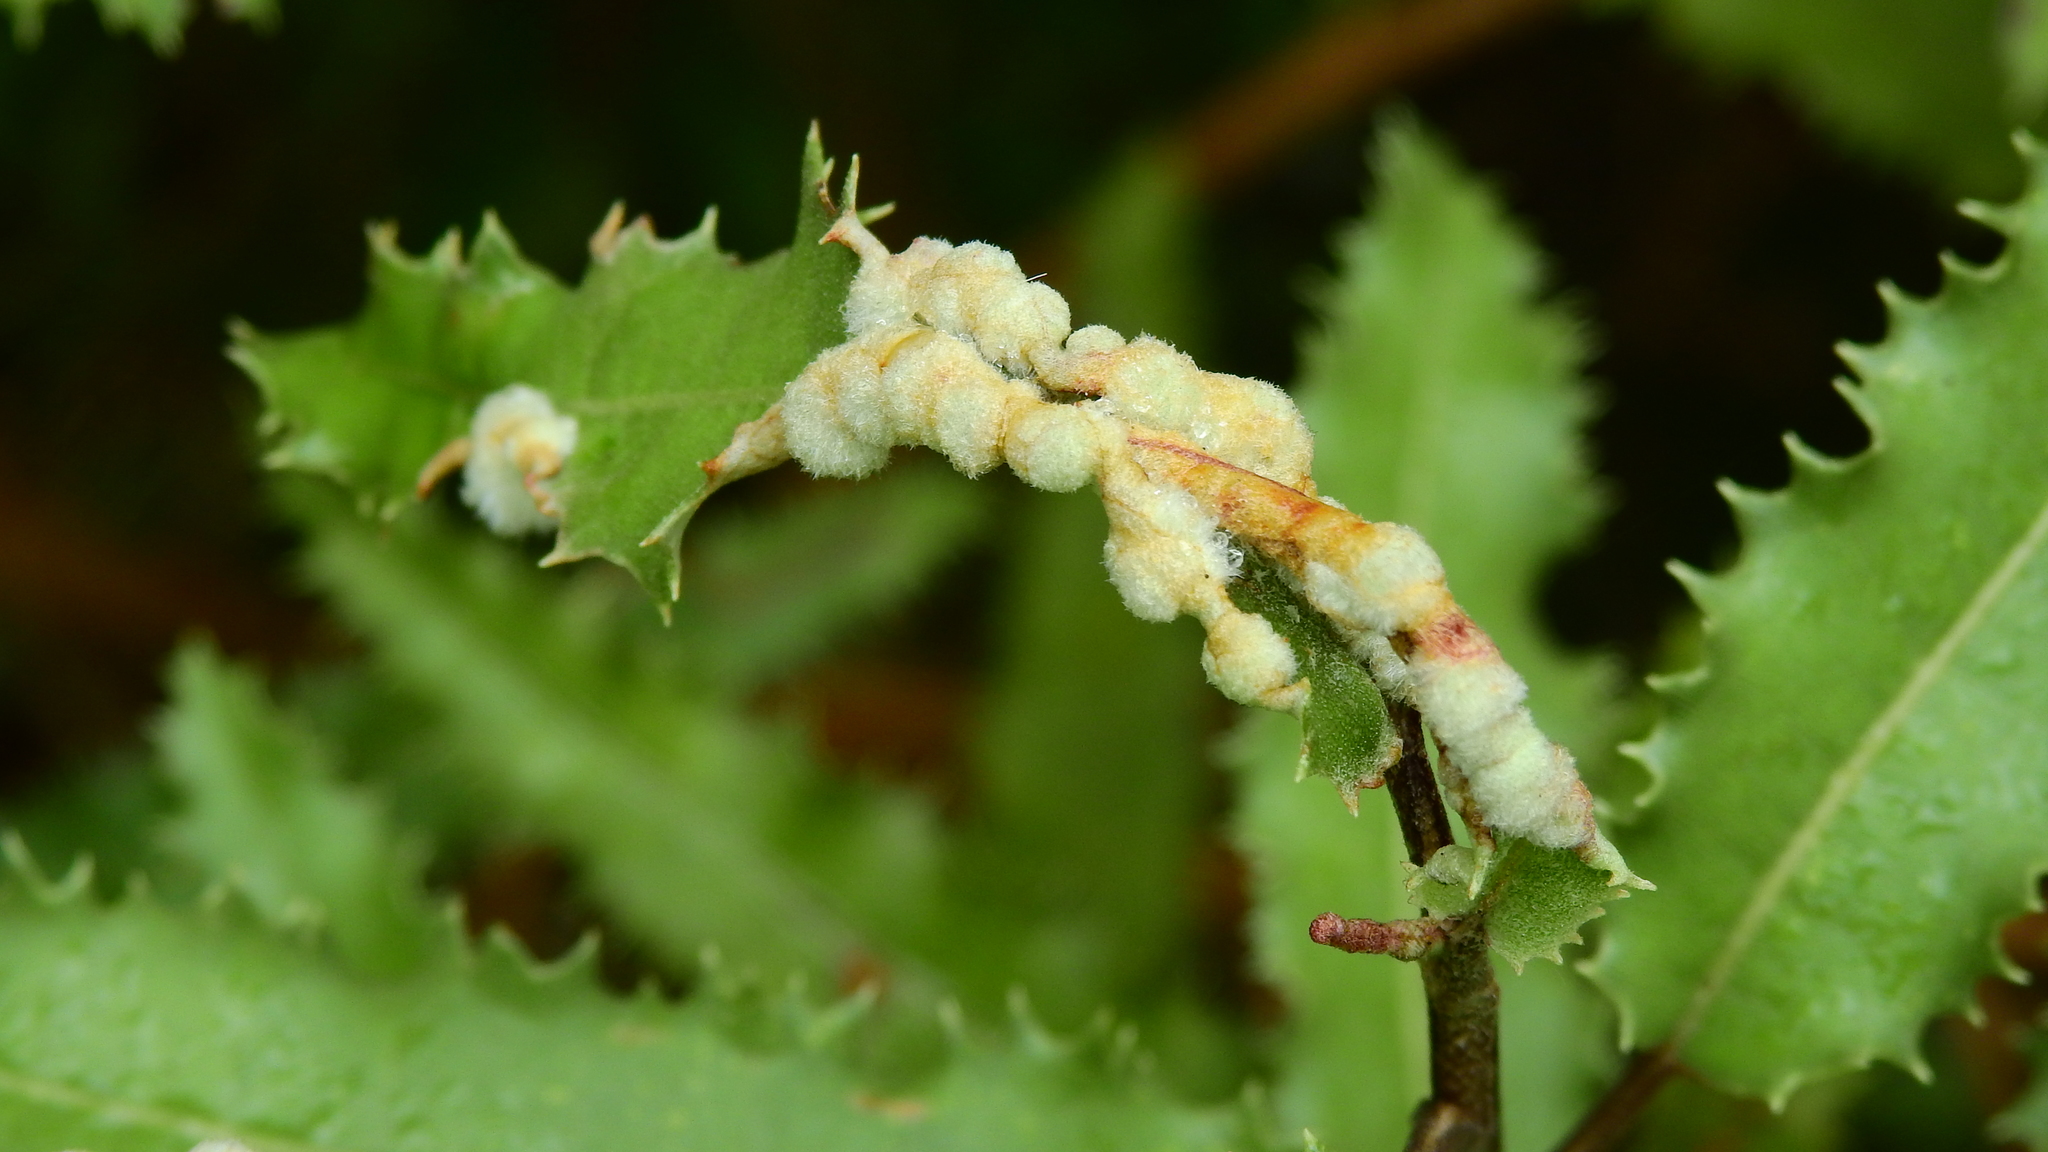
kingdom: Animalia
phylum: Arthropoda
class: Insecta
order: Hemiptera
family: Triozidae
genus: Trioza
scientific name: Trioza doryphora
